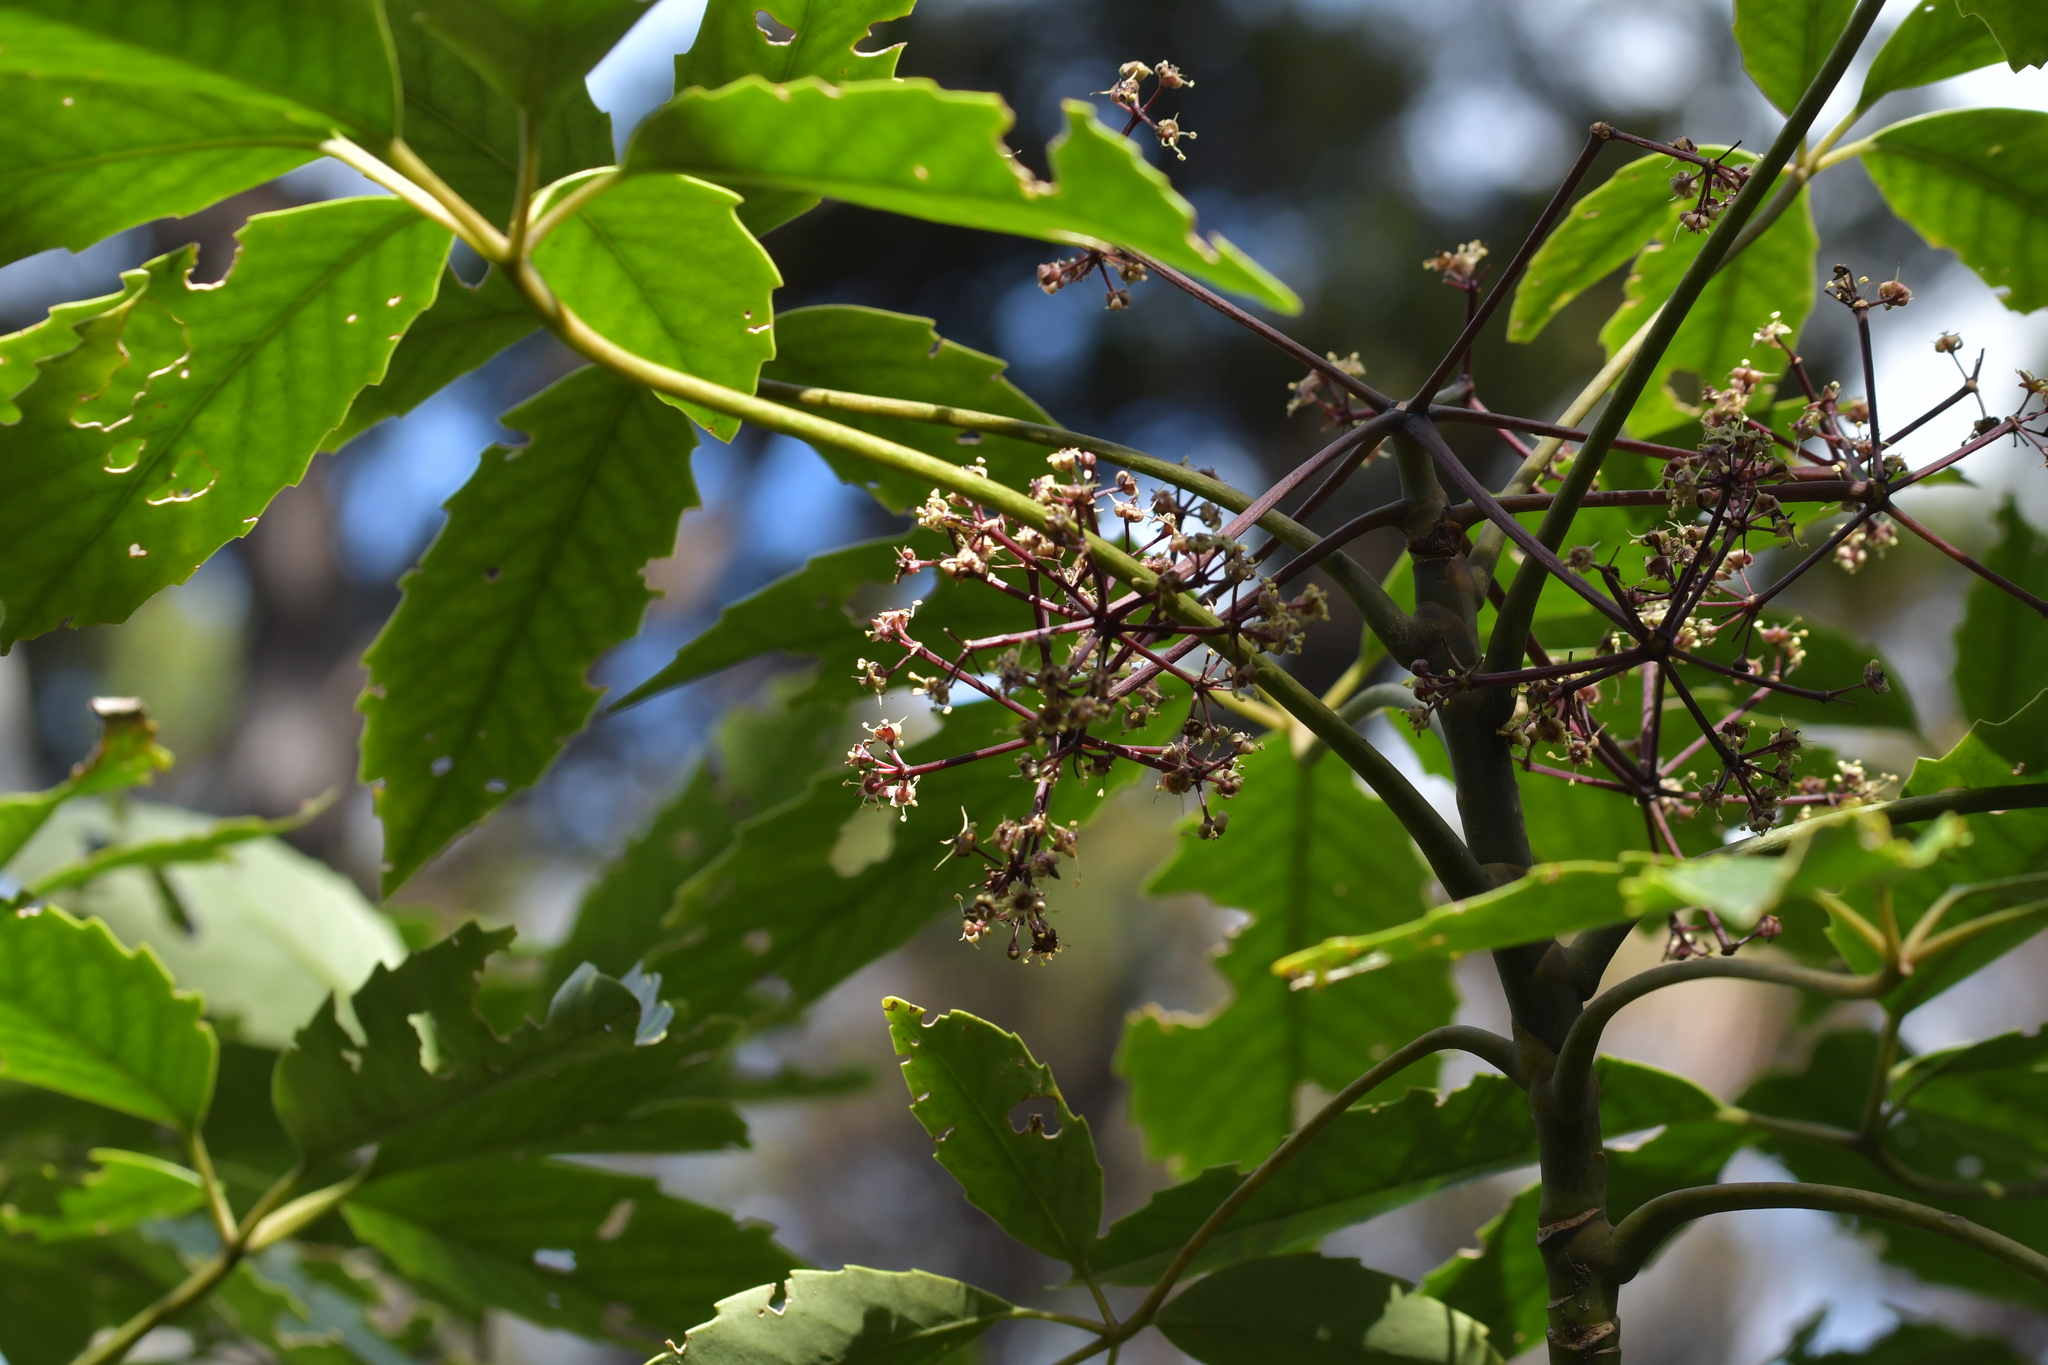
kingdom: Plantae
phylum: Tracheophyta
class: Magnoliopsida
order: Apiales
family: Araliaceae
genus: Neopanax
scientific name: Neopanax arboreus
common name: Five-fingers
